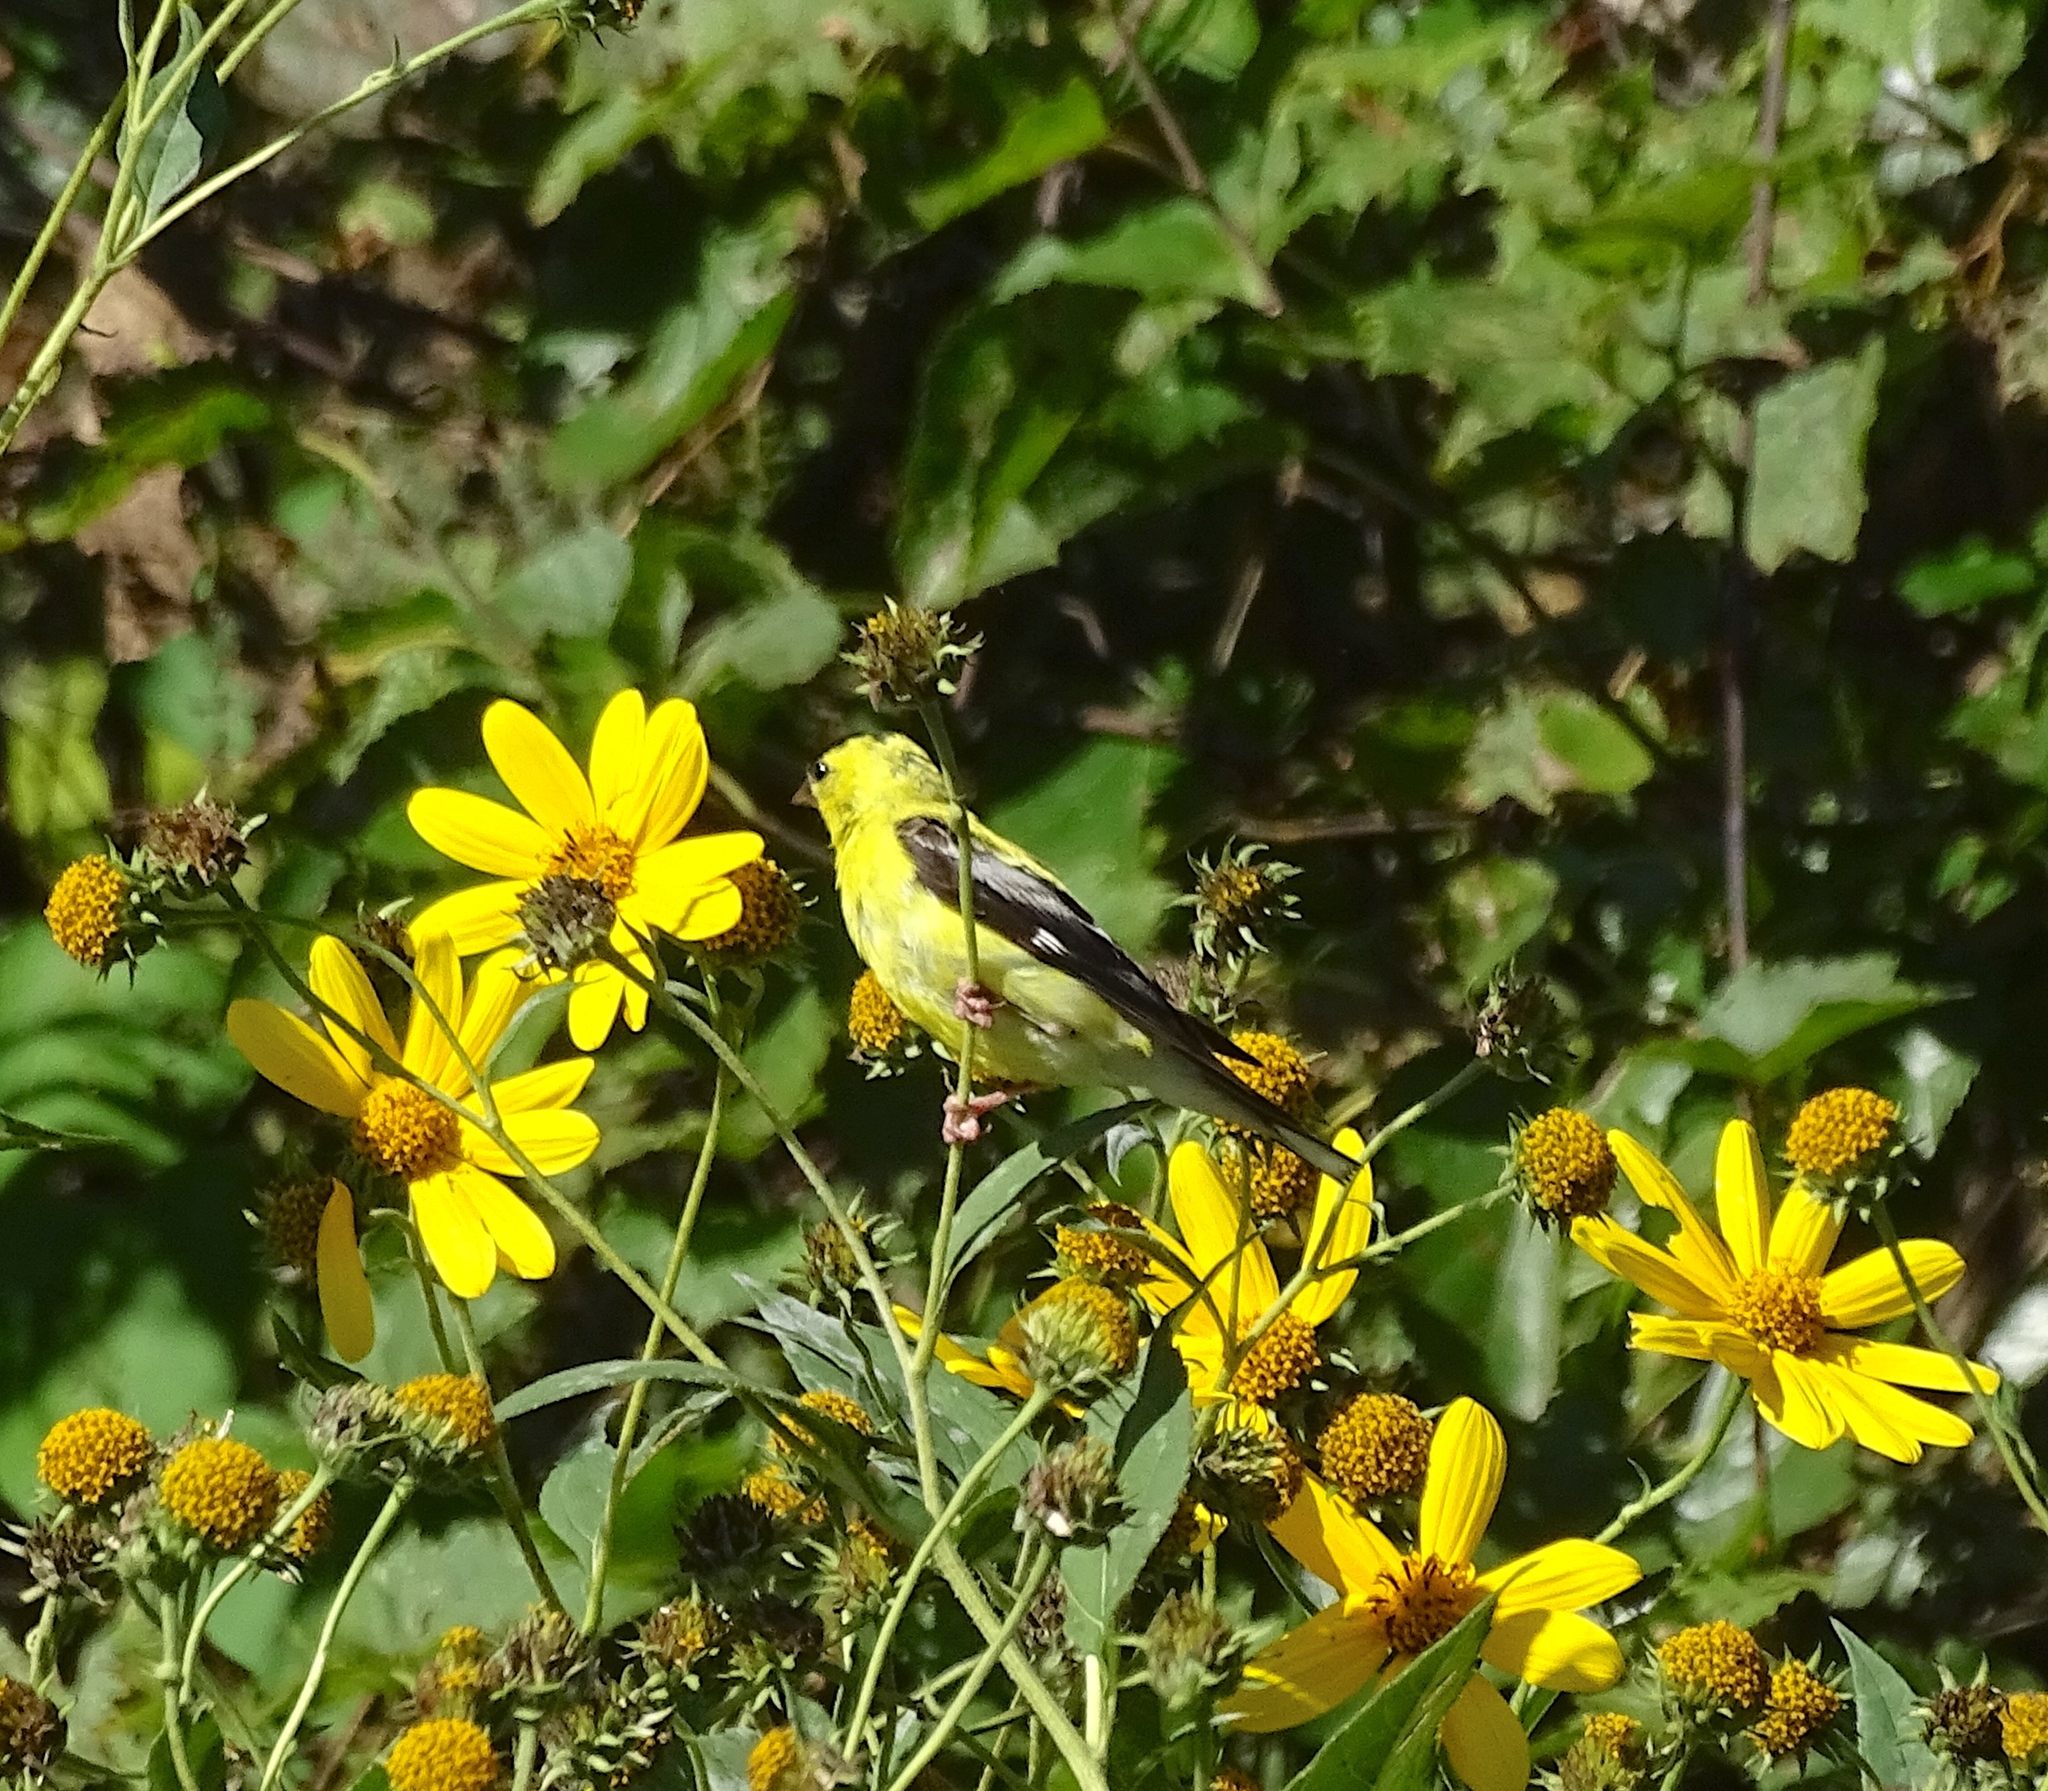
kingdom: Animalia
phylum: Chordata
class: Aves
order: Passeriformes
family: Fringillidae
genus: Spinus
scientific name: Spinus tristis
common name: American goldfinch
